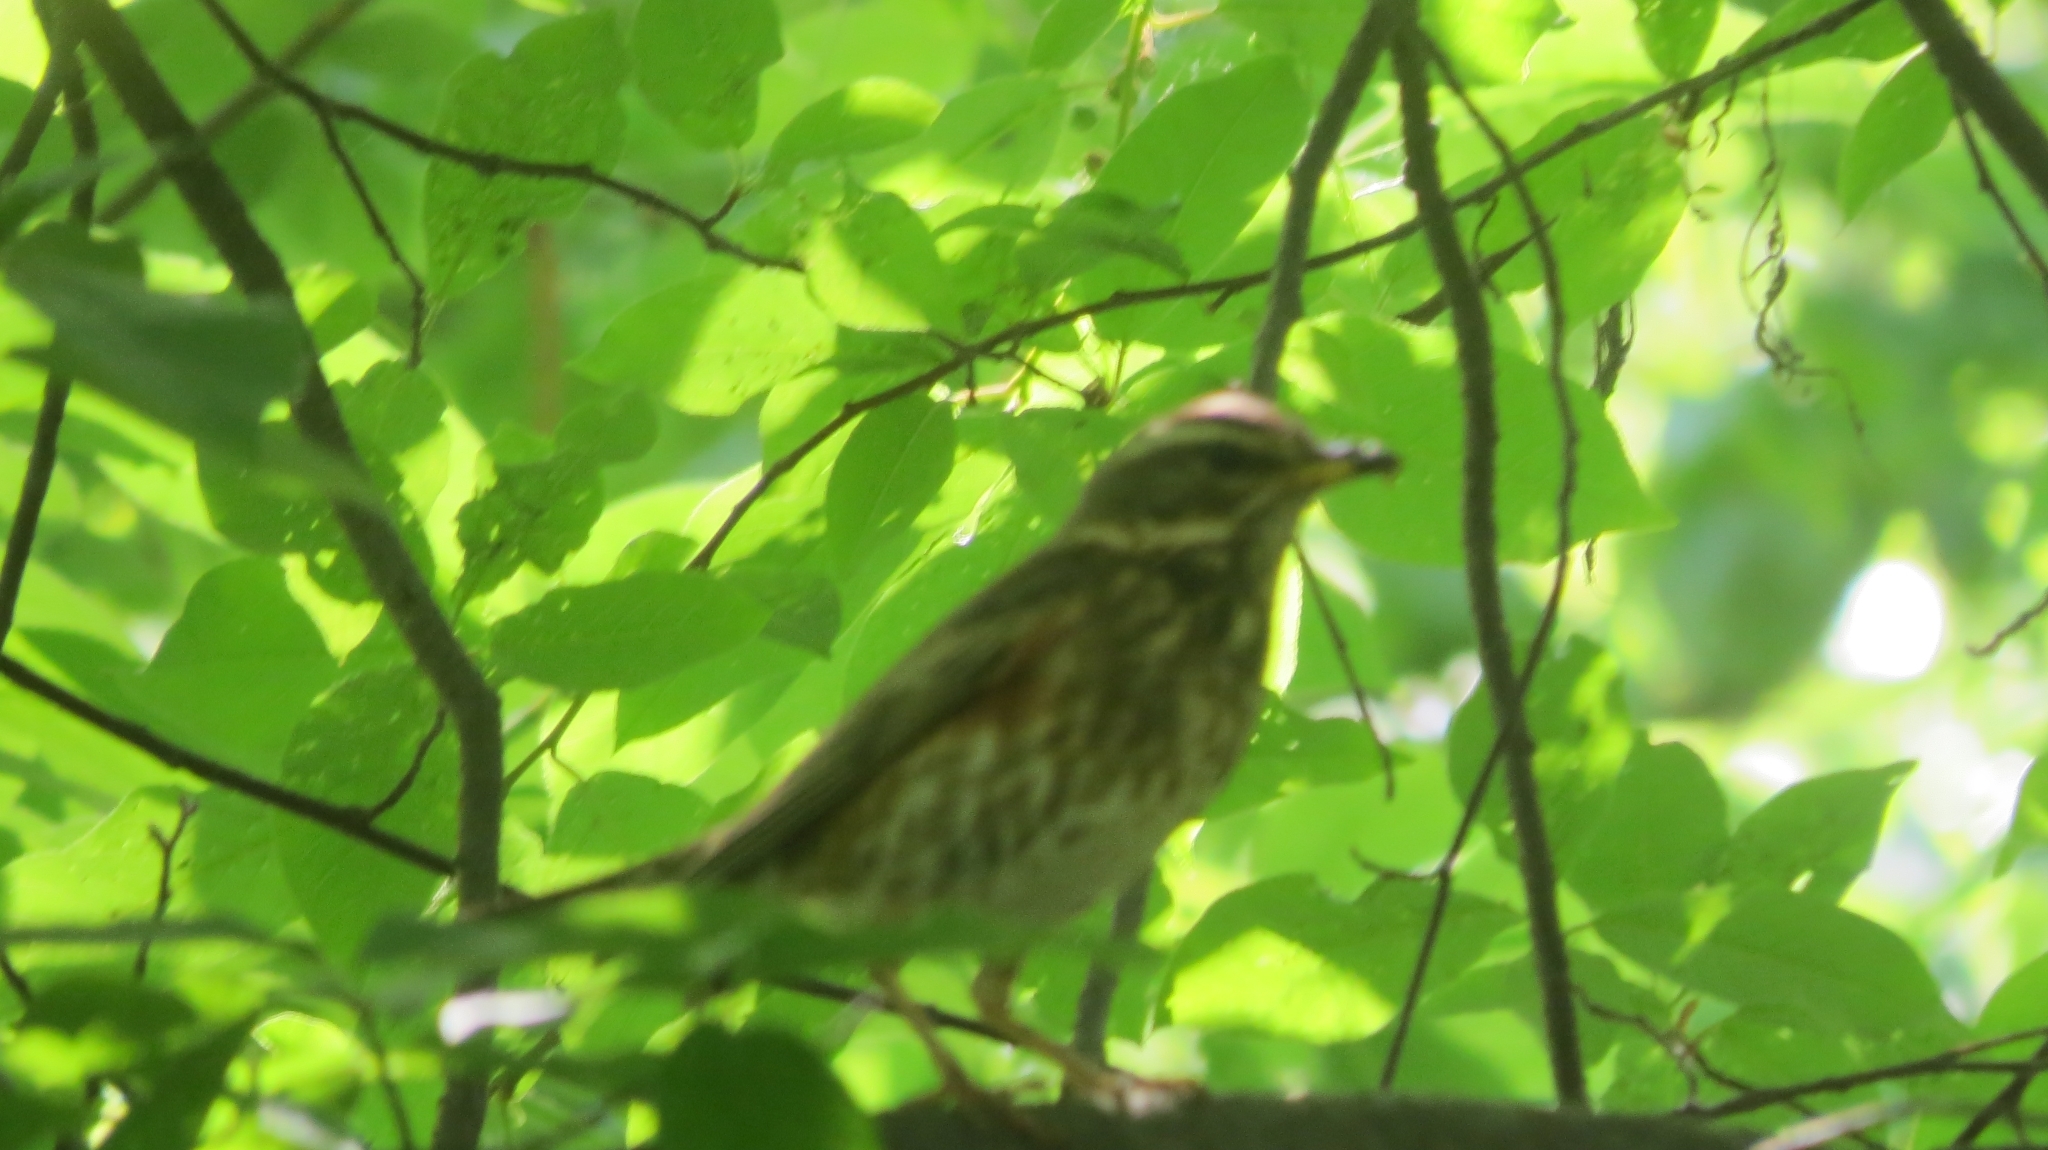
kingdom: Animalia
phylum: Chordata
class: Aves
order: Passeriformes
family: Turdidae
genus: Turdus
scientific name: Turdus iliacus
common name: Redwing
